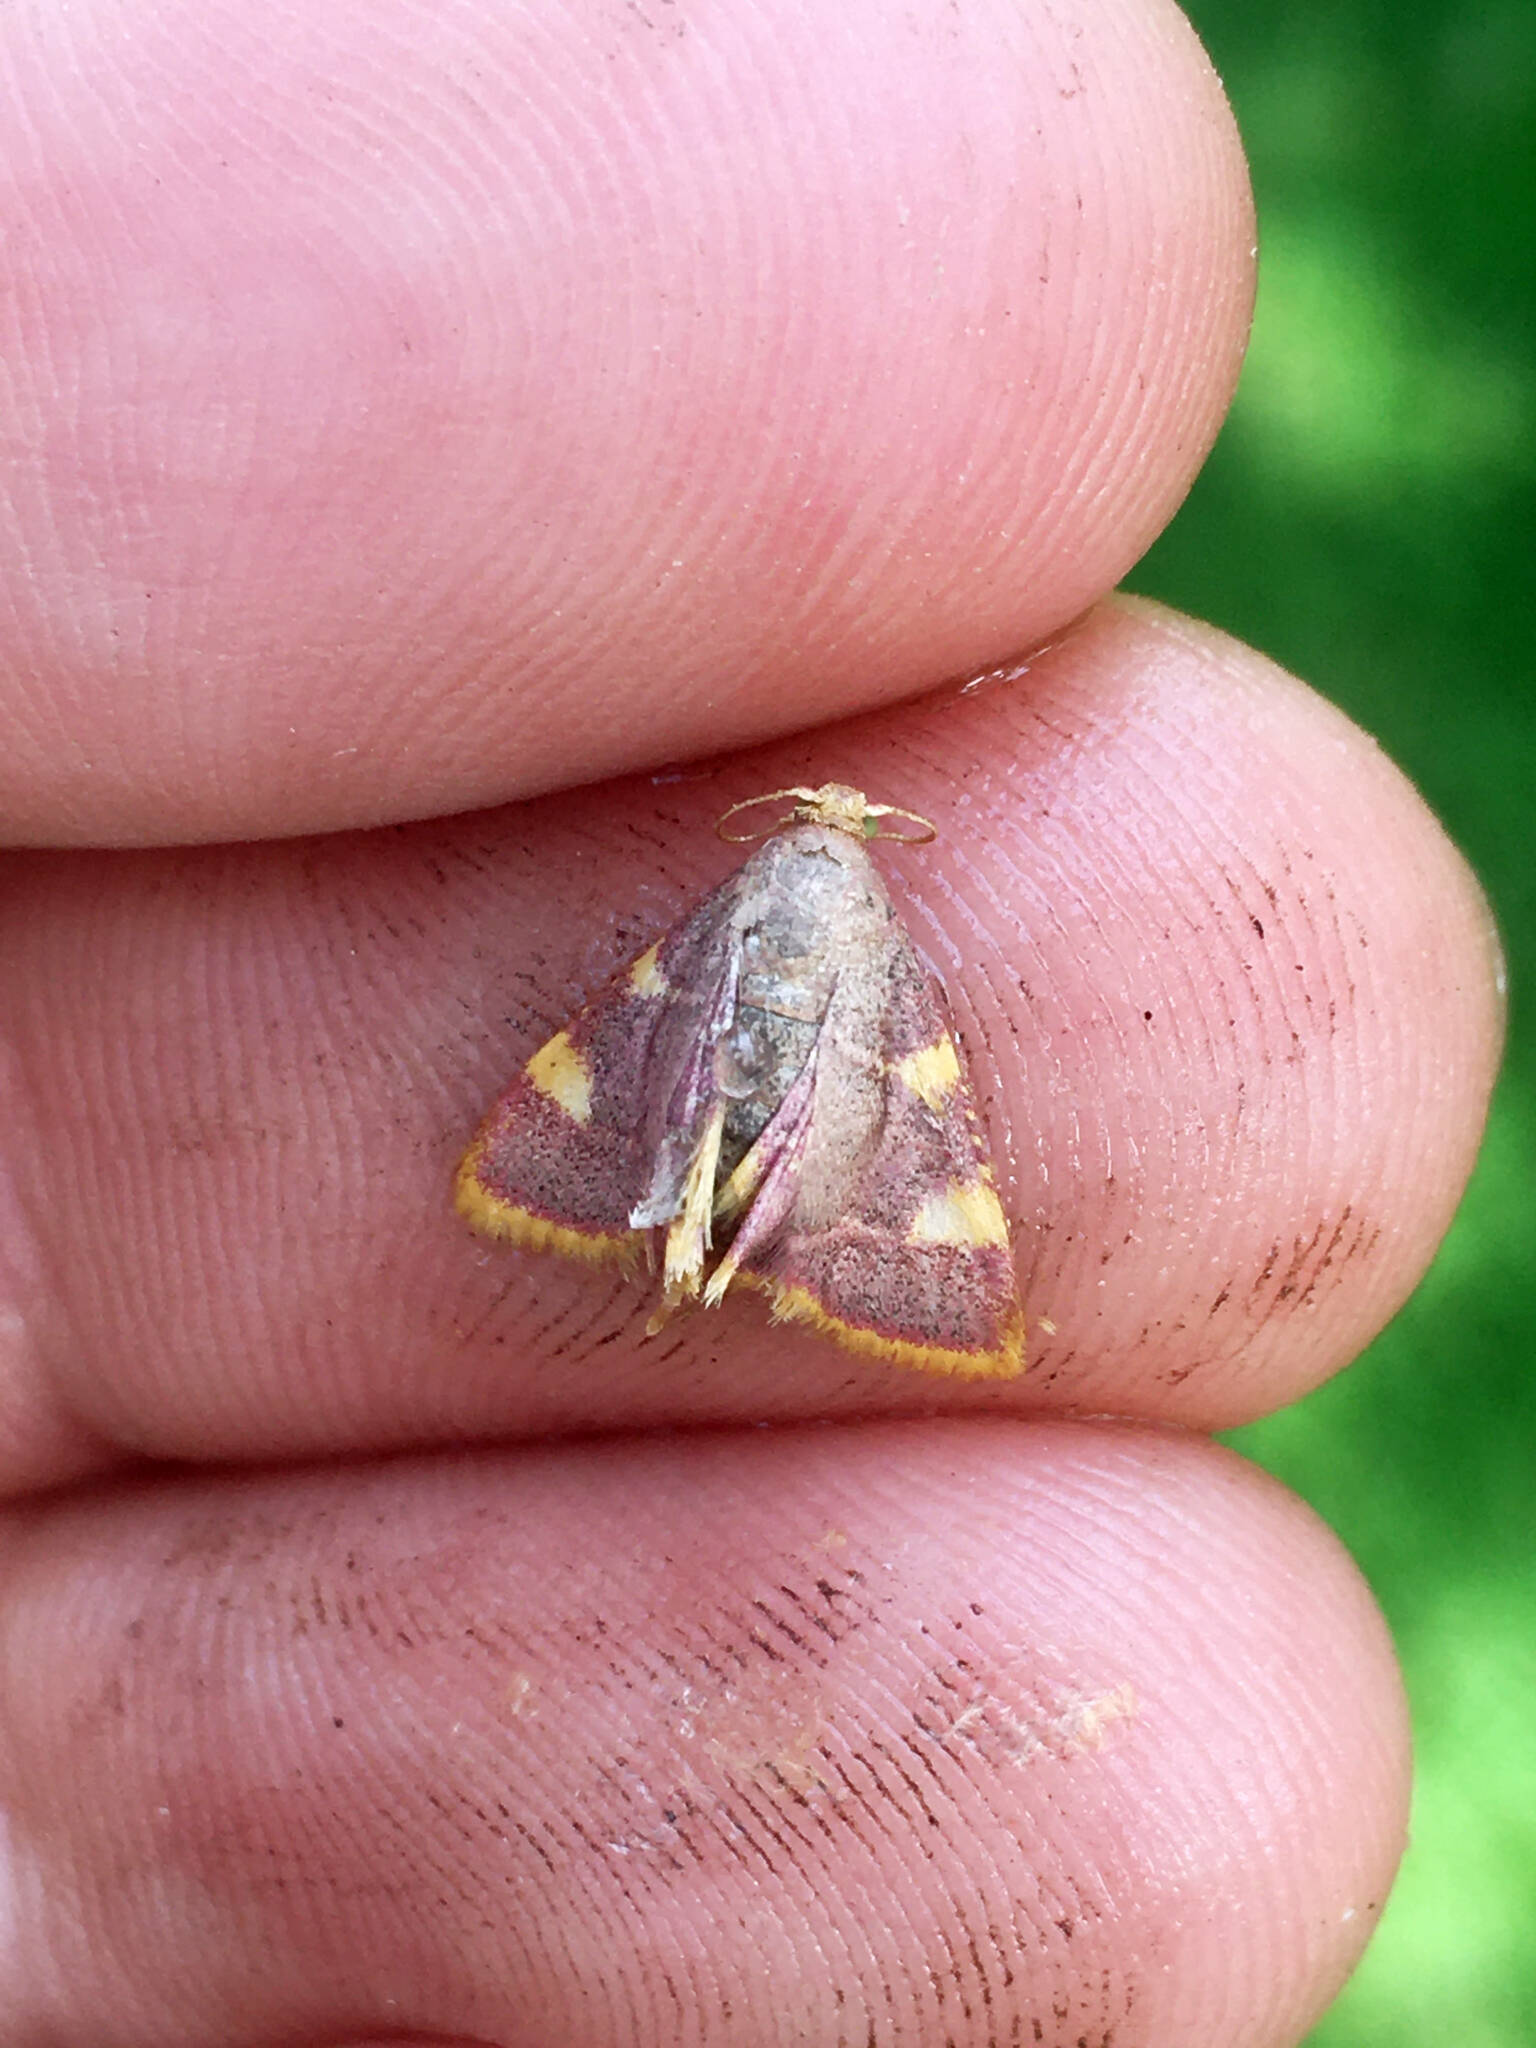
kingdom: Animalia
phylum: Arthropoda
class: Insecta
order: Lepidoptera
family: Pyralidae
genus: Hypsopygia
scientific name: Hypsopygia costalis
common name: Gold triangle
